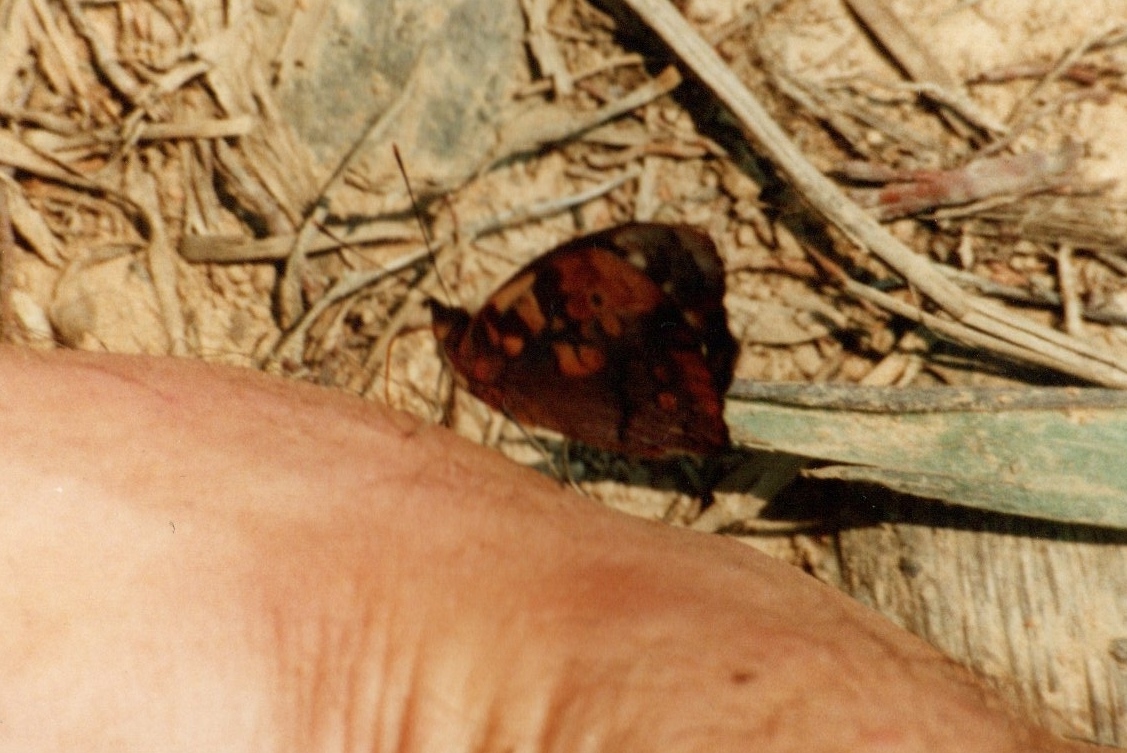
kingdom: Animalia
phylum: Arthropoda
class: Insecta
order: Lepidoptera
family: Nymphalidae
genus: Eunica
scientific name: Eunica mygdonia
